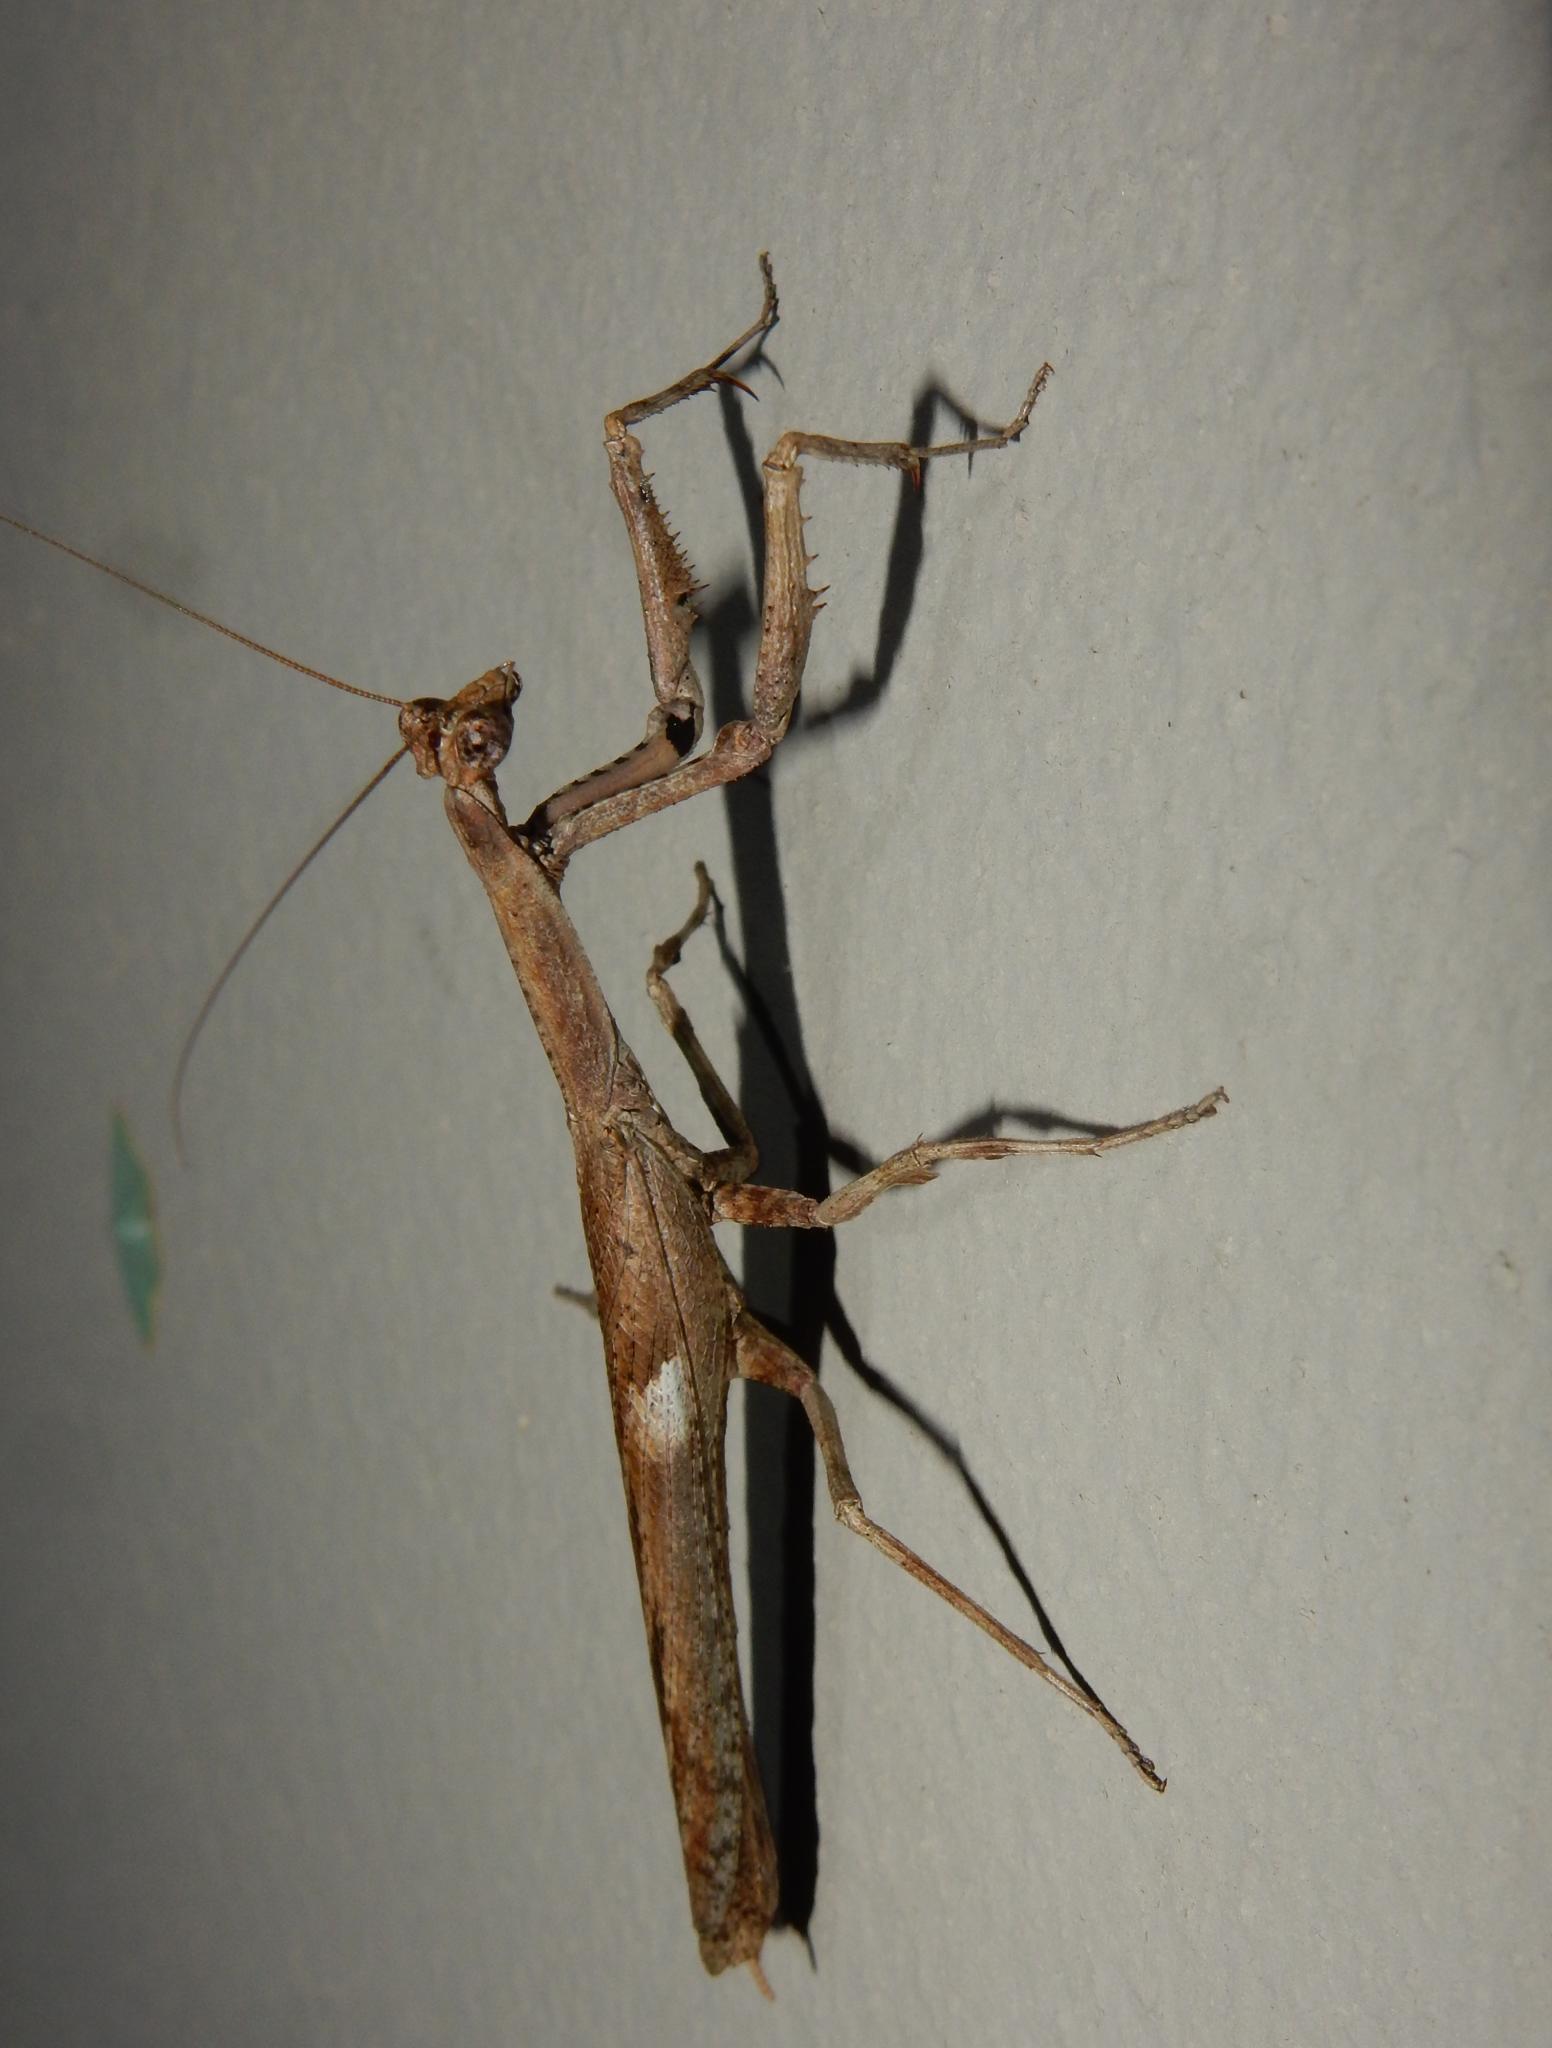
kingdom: Animalia
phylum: Arthropoda
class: Insecta
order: Mantodea
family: Deroplatyidae
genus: Popa
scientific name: Popa spurca
